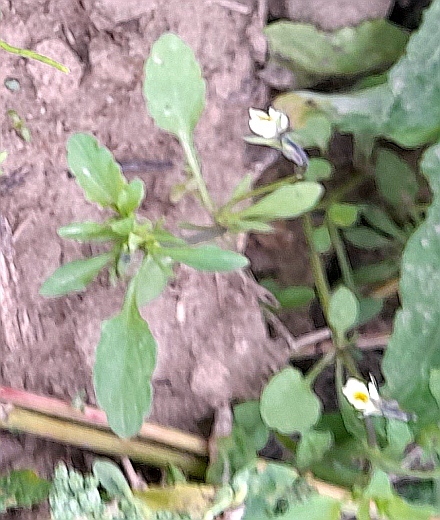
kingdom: Plantae
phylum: Tracheophyta
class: Magnoliopsida
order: Malpighiales
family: Violaceae
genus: Viola
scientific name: Viola arvensis
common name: Field pansy
